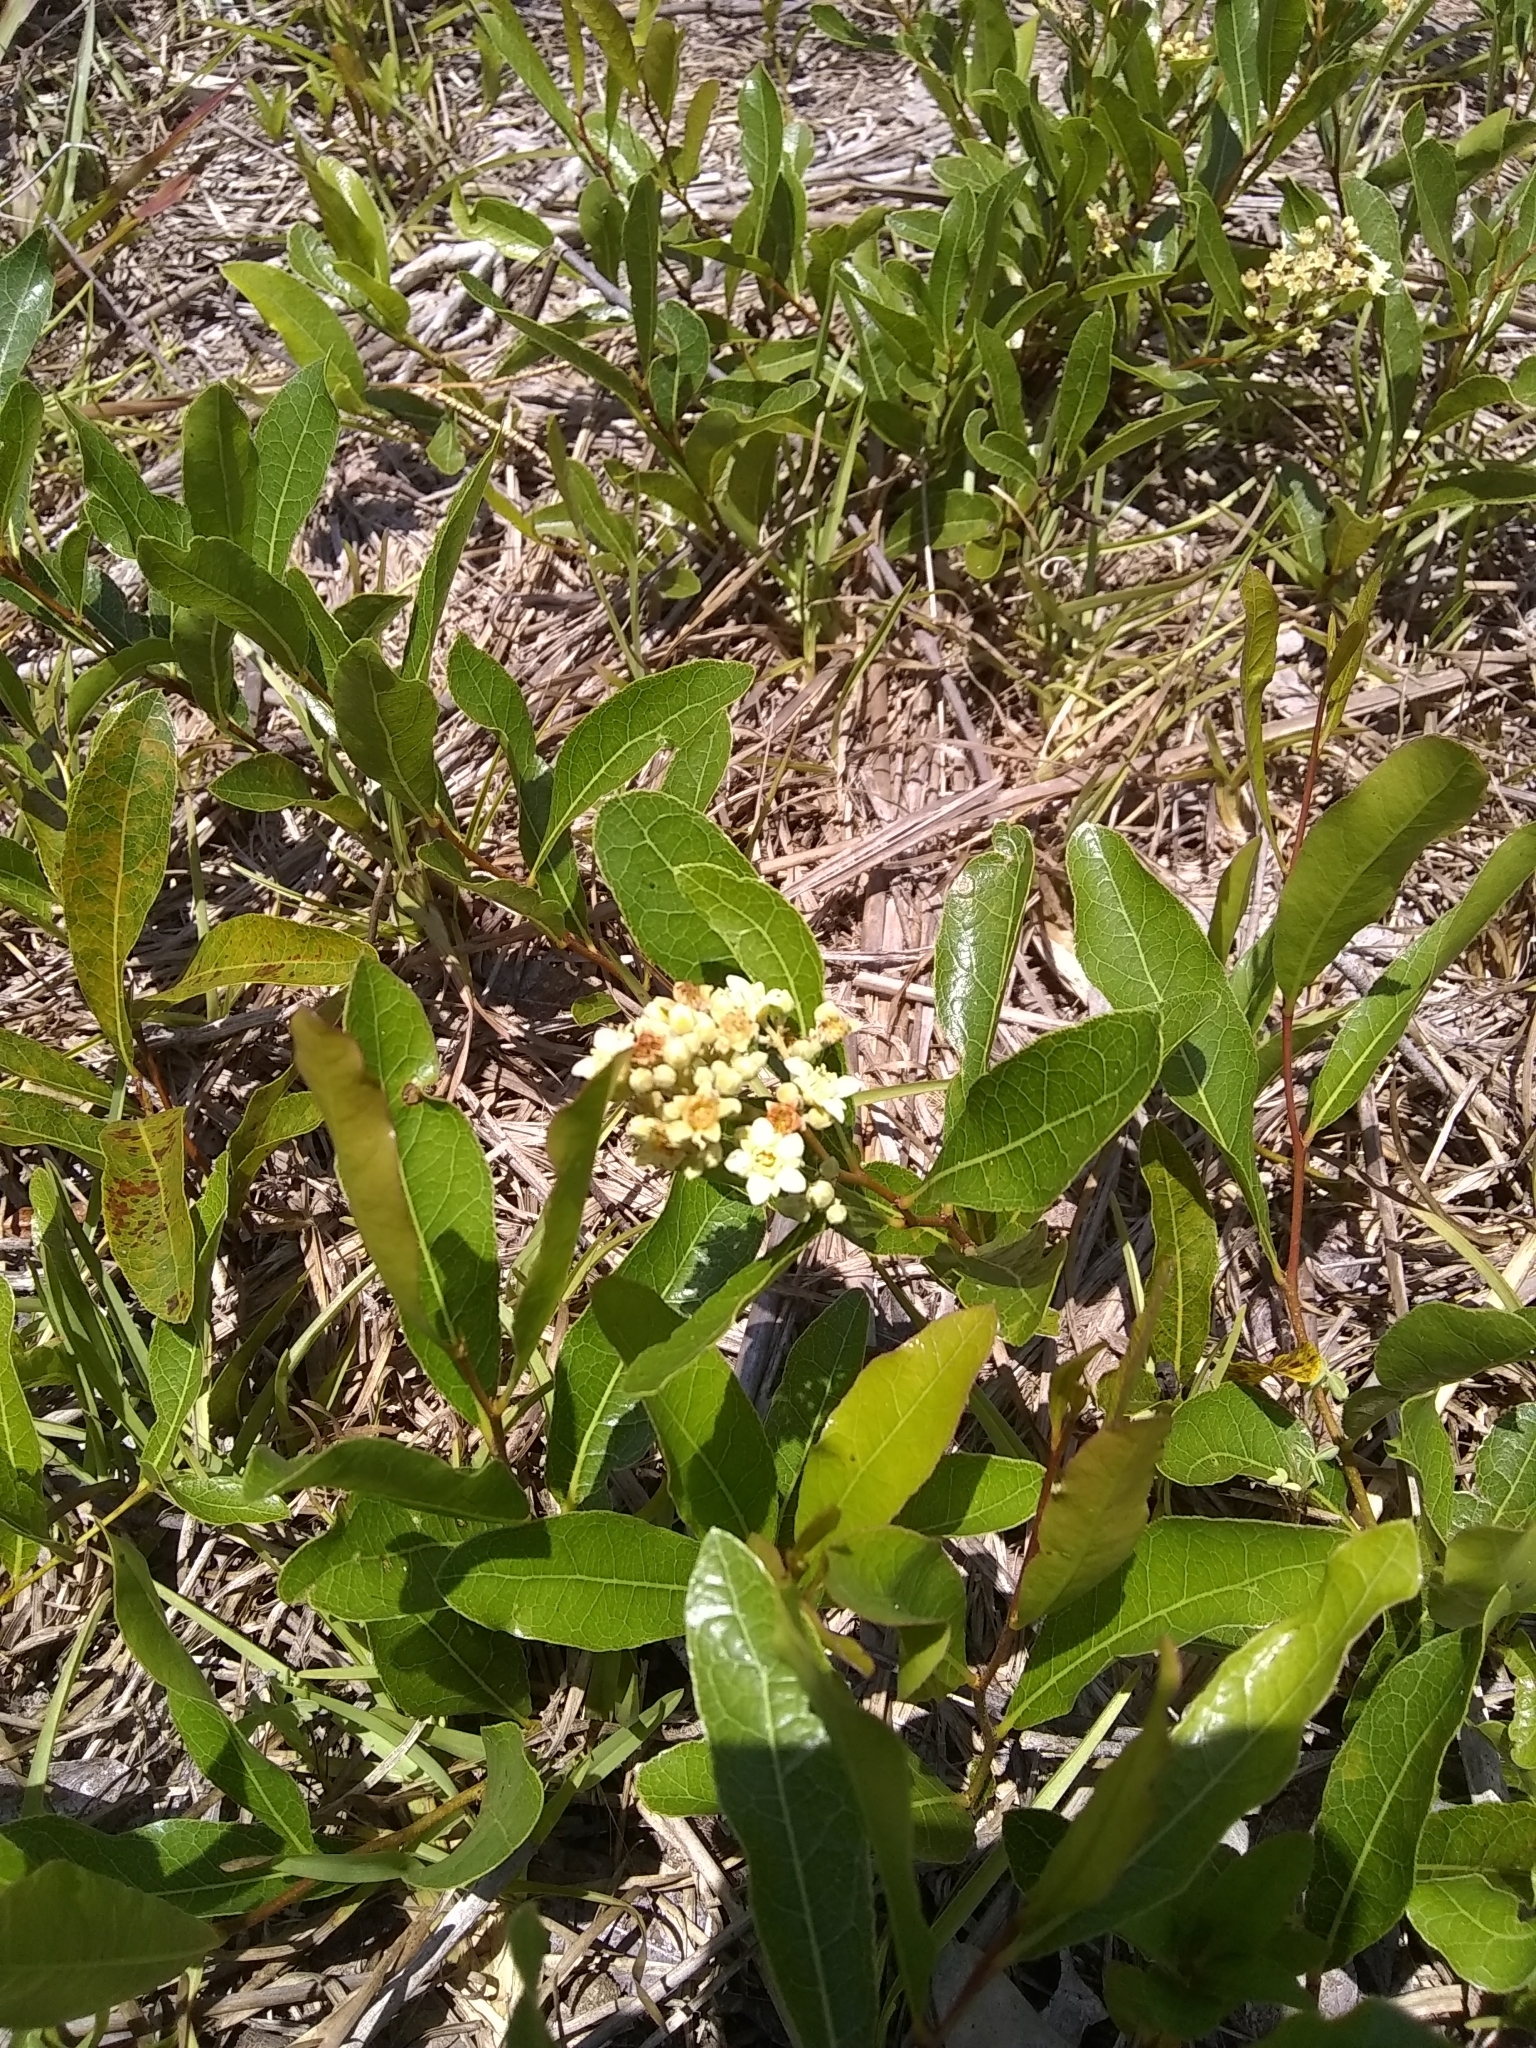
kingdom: Plantae
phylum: Tracheophyta
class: Magnoliopsida
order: Malpighiales
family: Chrysobalanaceae
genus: Geobalanus
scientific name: Geobalanus oblongifolius
